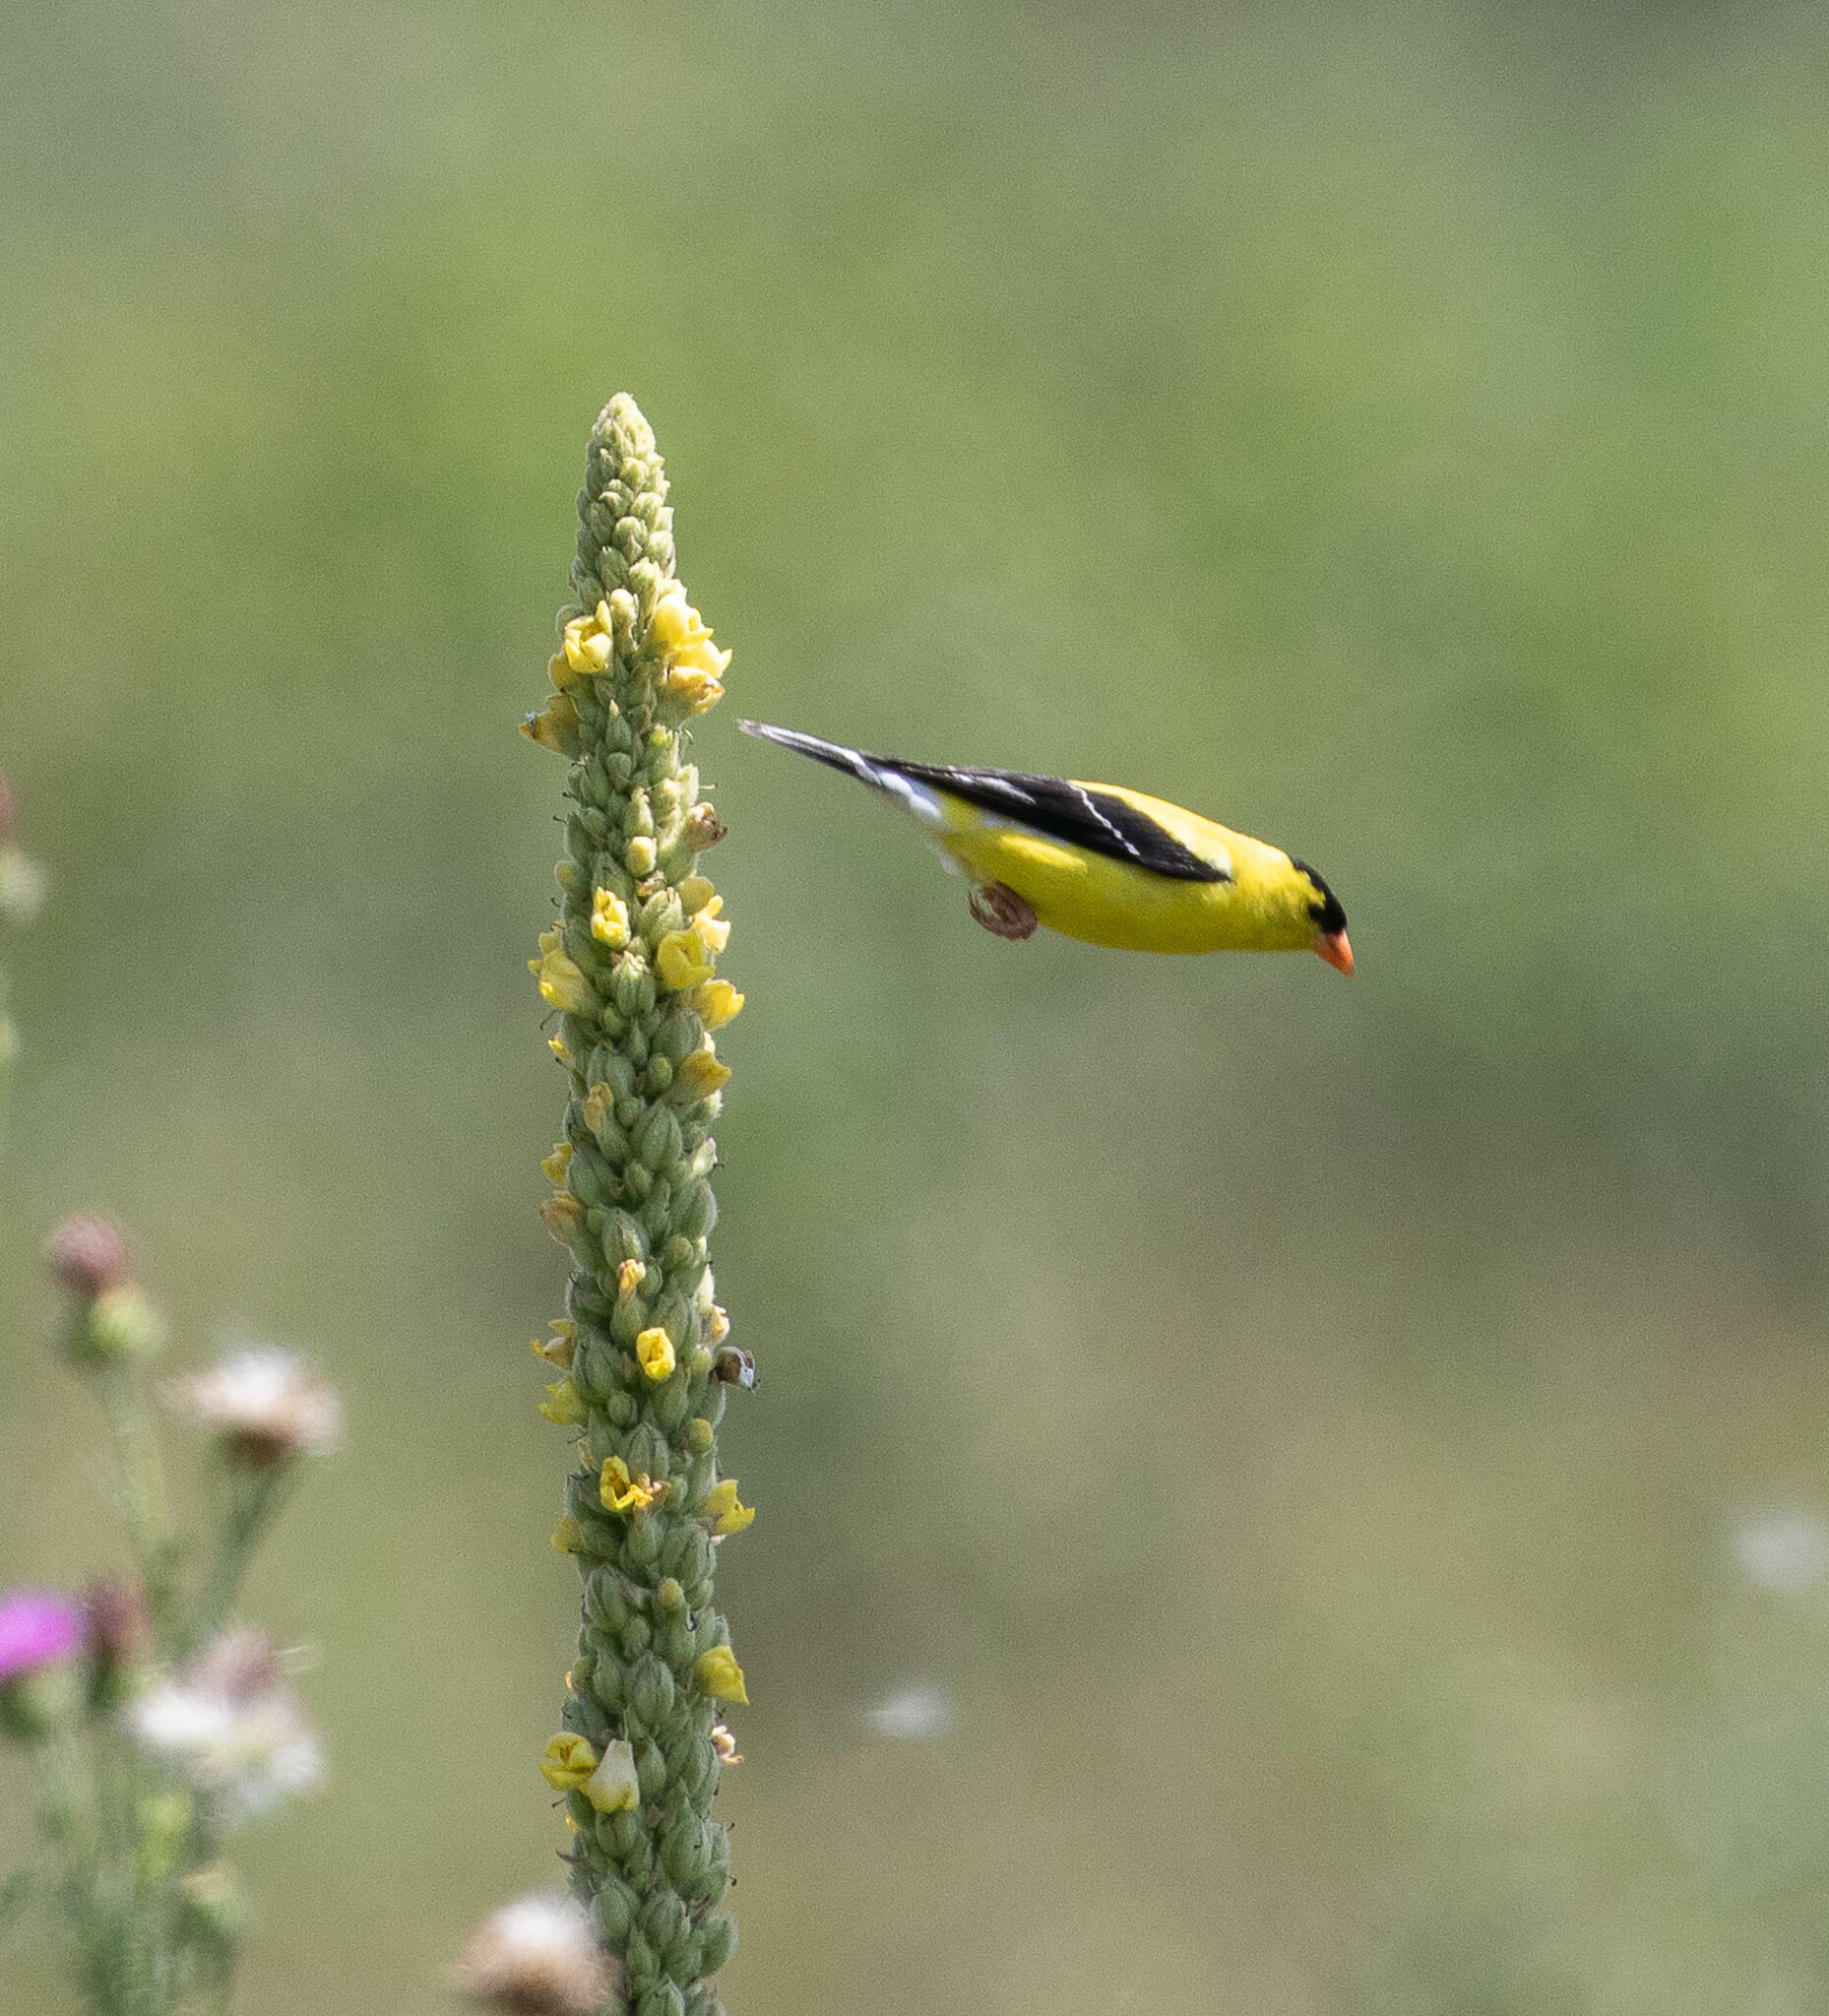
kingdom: Animalia
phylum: Chordata
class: Aves
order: Passeriformes
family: Fringillidae
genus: Spinus
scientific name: Spinus tristis
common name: American goldfinch
